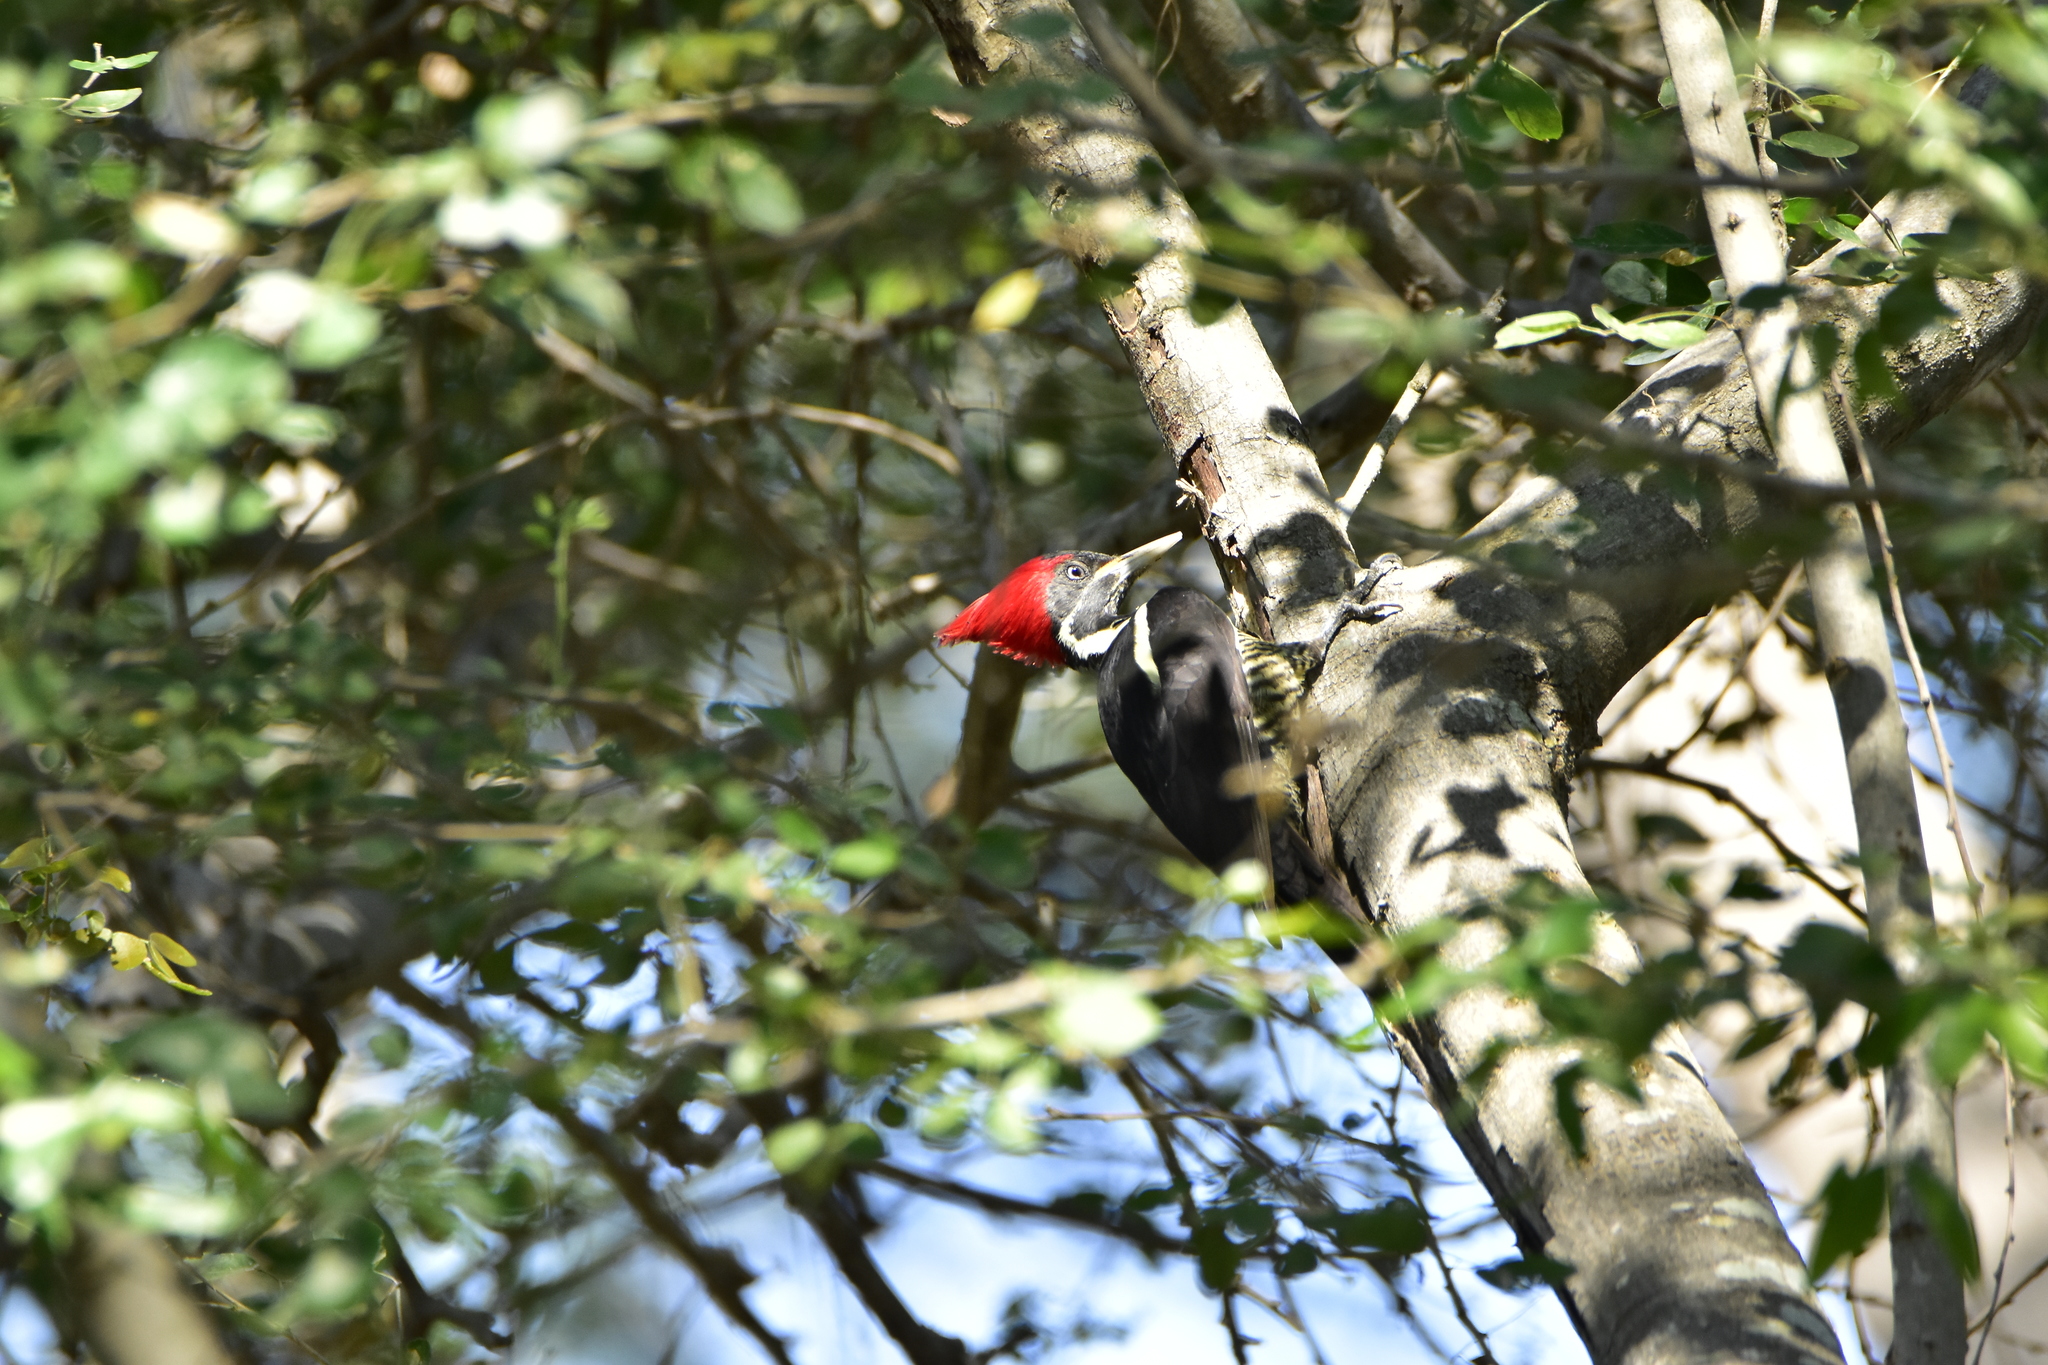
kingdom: Animalia
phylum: Chordata
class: Aves
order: Piciformes
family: Picidae
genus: Dryocopus
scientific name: Dryocopus lineatus
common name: Lineated woodpecker
